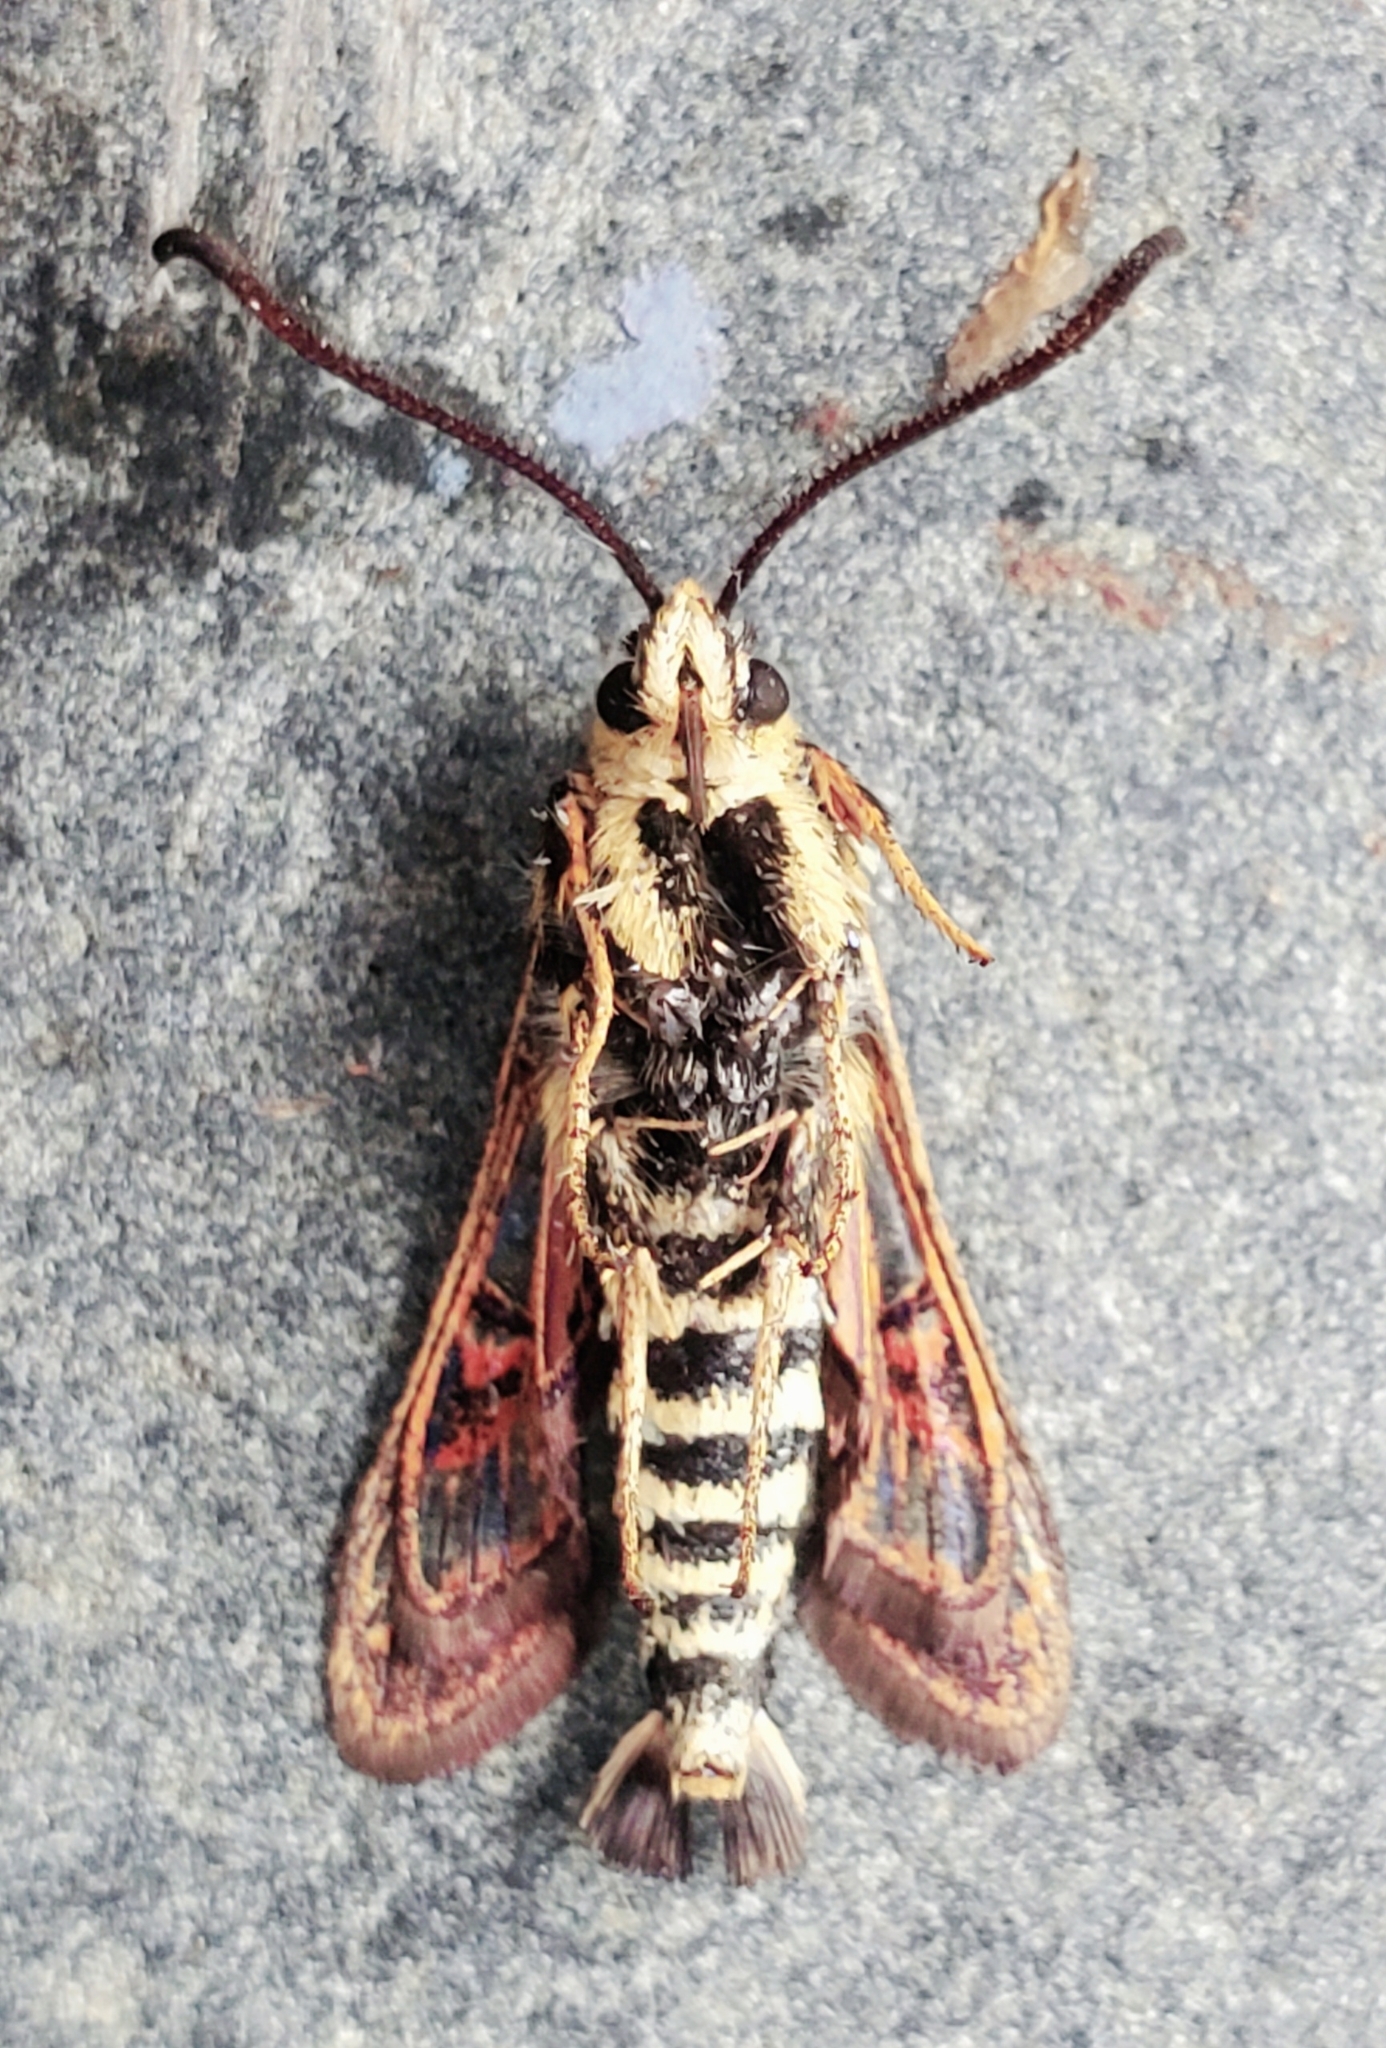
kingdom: Animalia
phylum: Arthropoda
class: Insecta
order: Lepidoptera
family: Sesiidae
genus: Albuna
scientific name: Albuna pyramidalis
